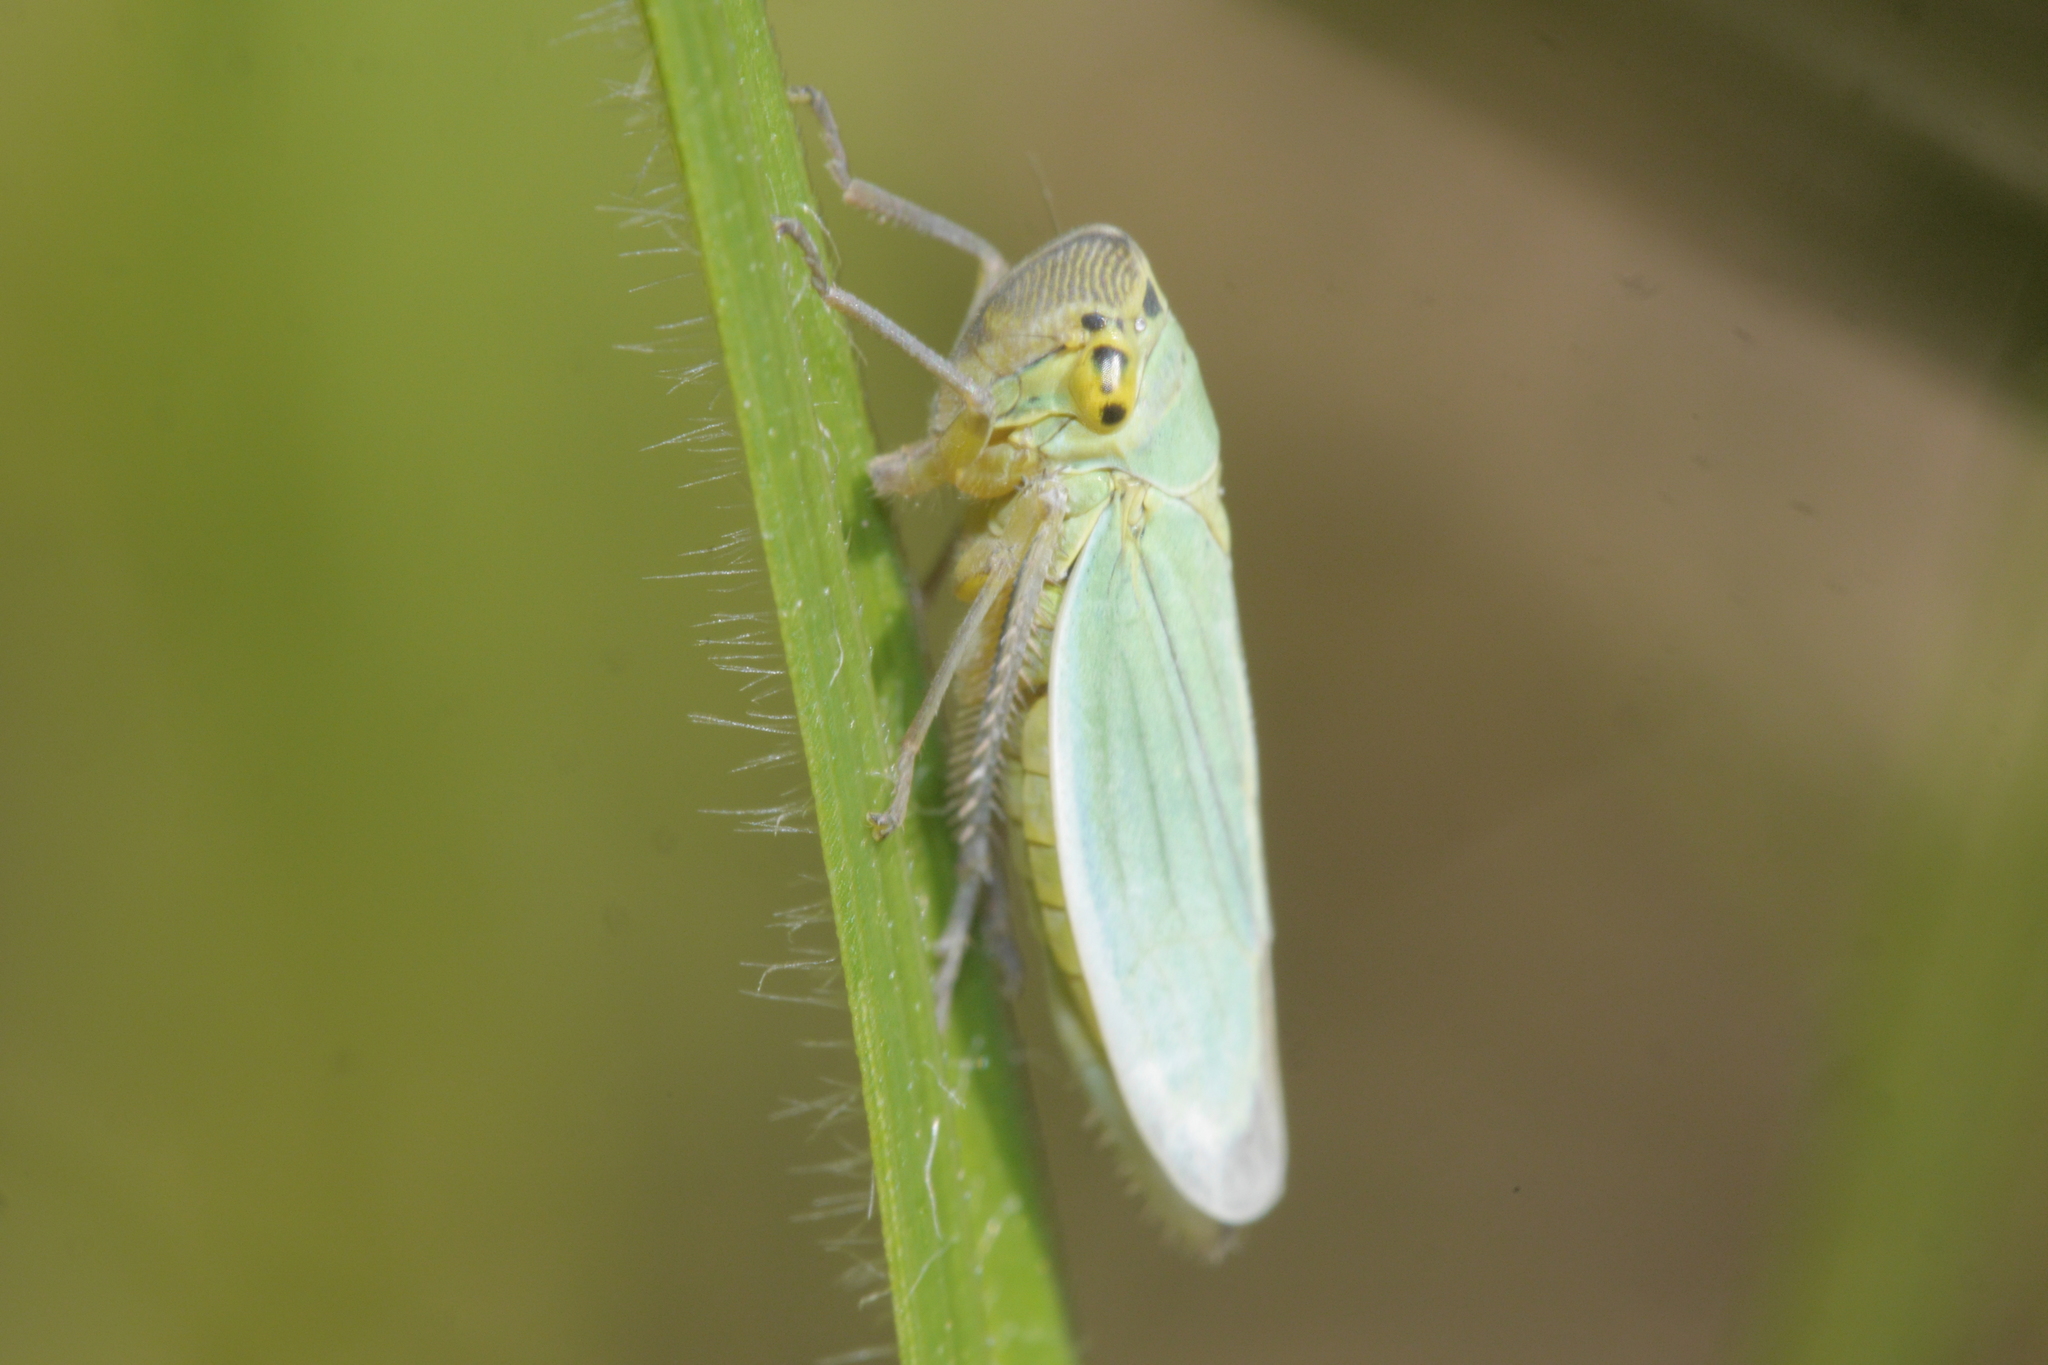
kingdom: Animalia
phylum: Arthropoda
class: Insecta
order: Hemiptera
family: Cicadellidae
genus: Cicadella
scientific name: Cicadella viridis
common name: Leafhopper
